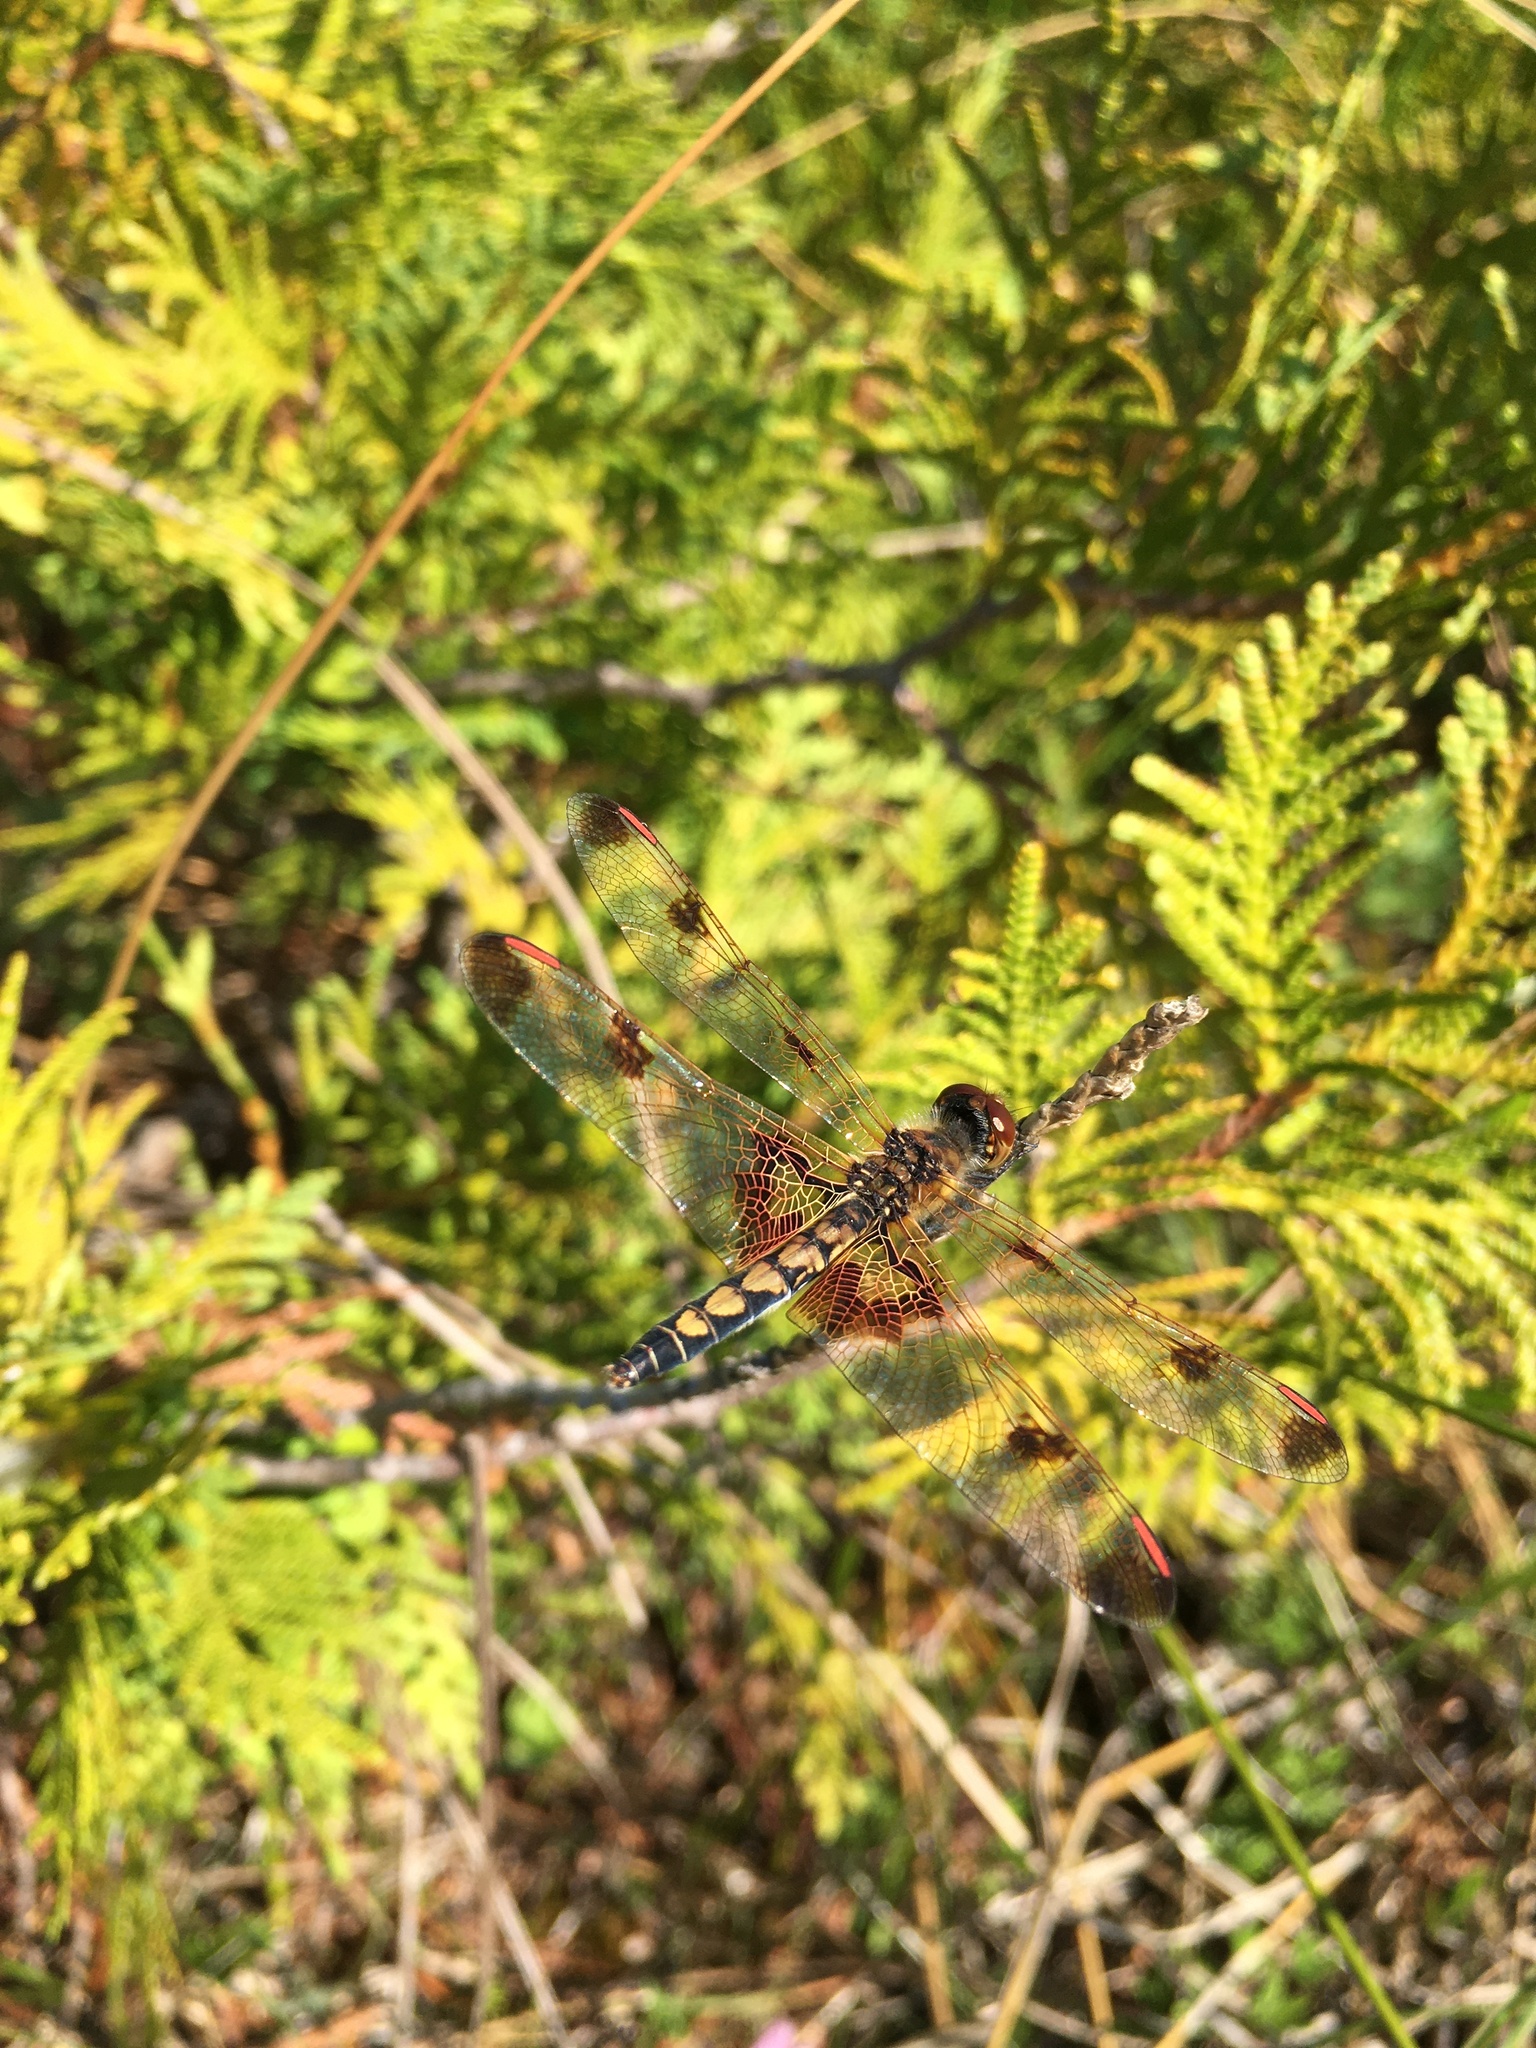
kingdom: Animalia
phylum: Arthropoda
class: Insecta
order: Odonata
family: Libellulidae
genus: Celithemis
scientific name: Celithemis elisa
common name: Calico pennant
